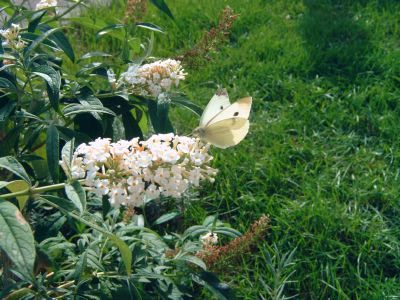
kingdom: Animalia
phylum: Arthropoda
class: Insecta
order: Lepidoptera
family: Pieridae
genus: Pieris
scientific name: Pieris rapae
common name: Small white
